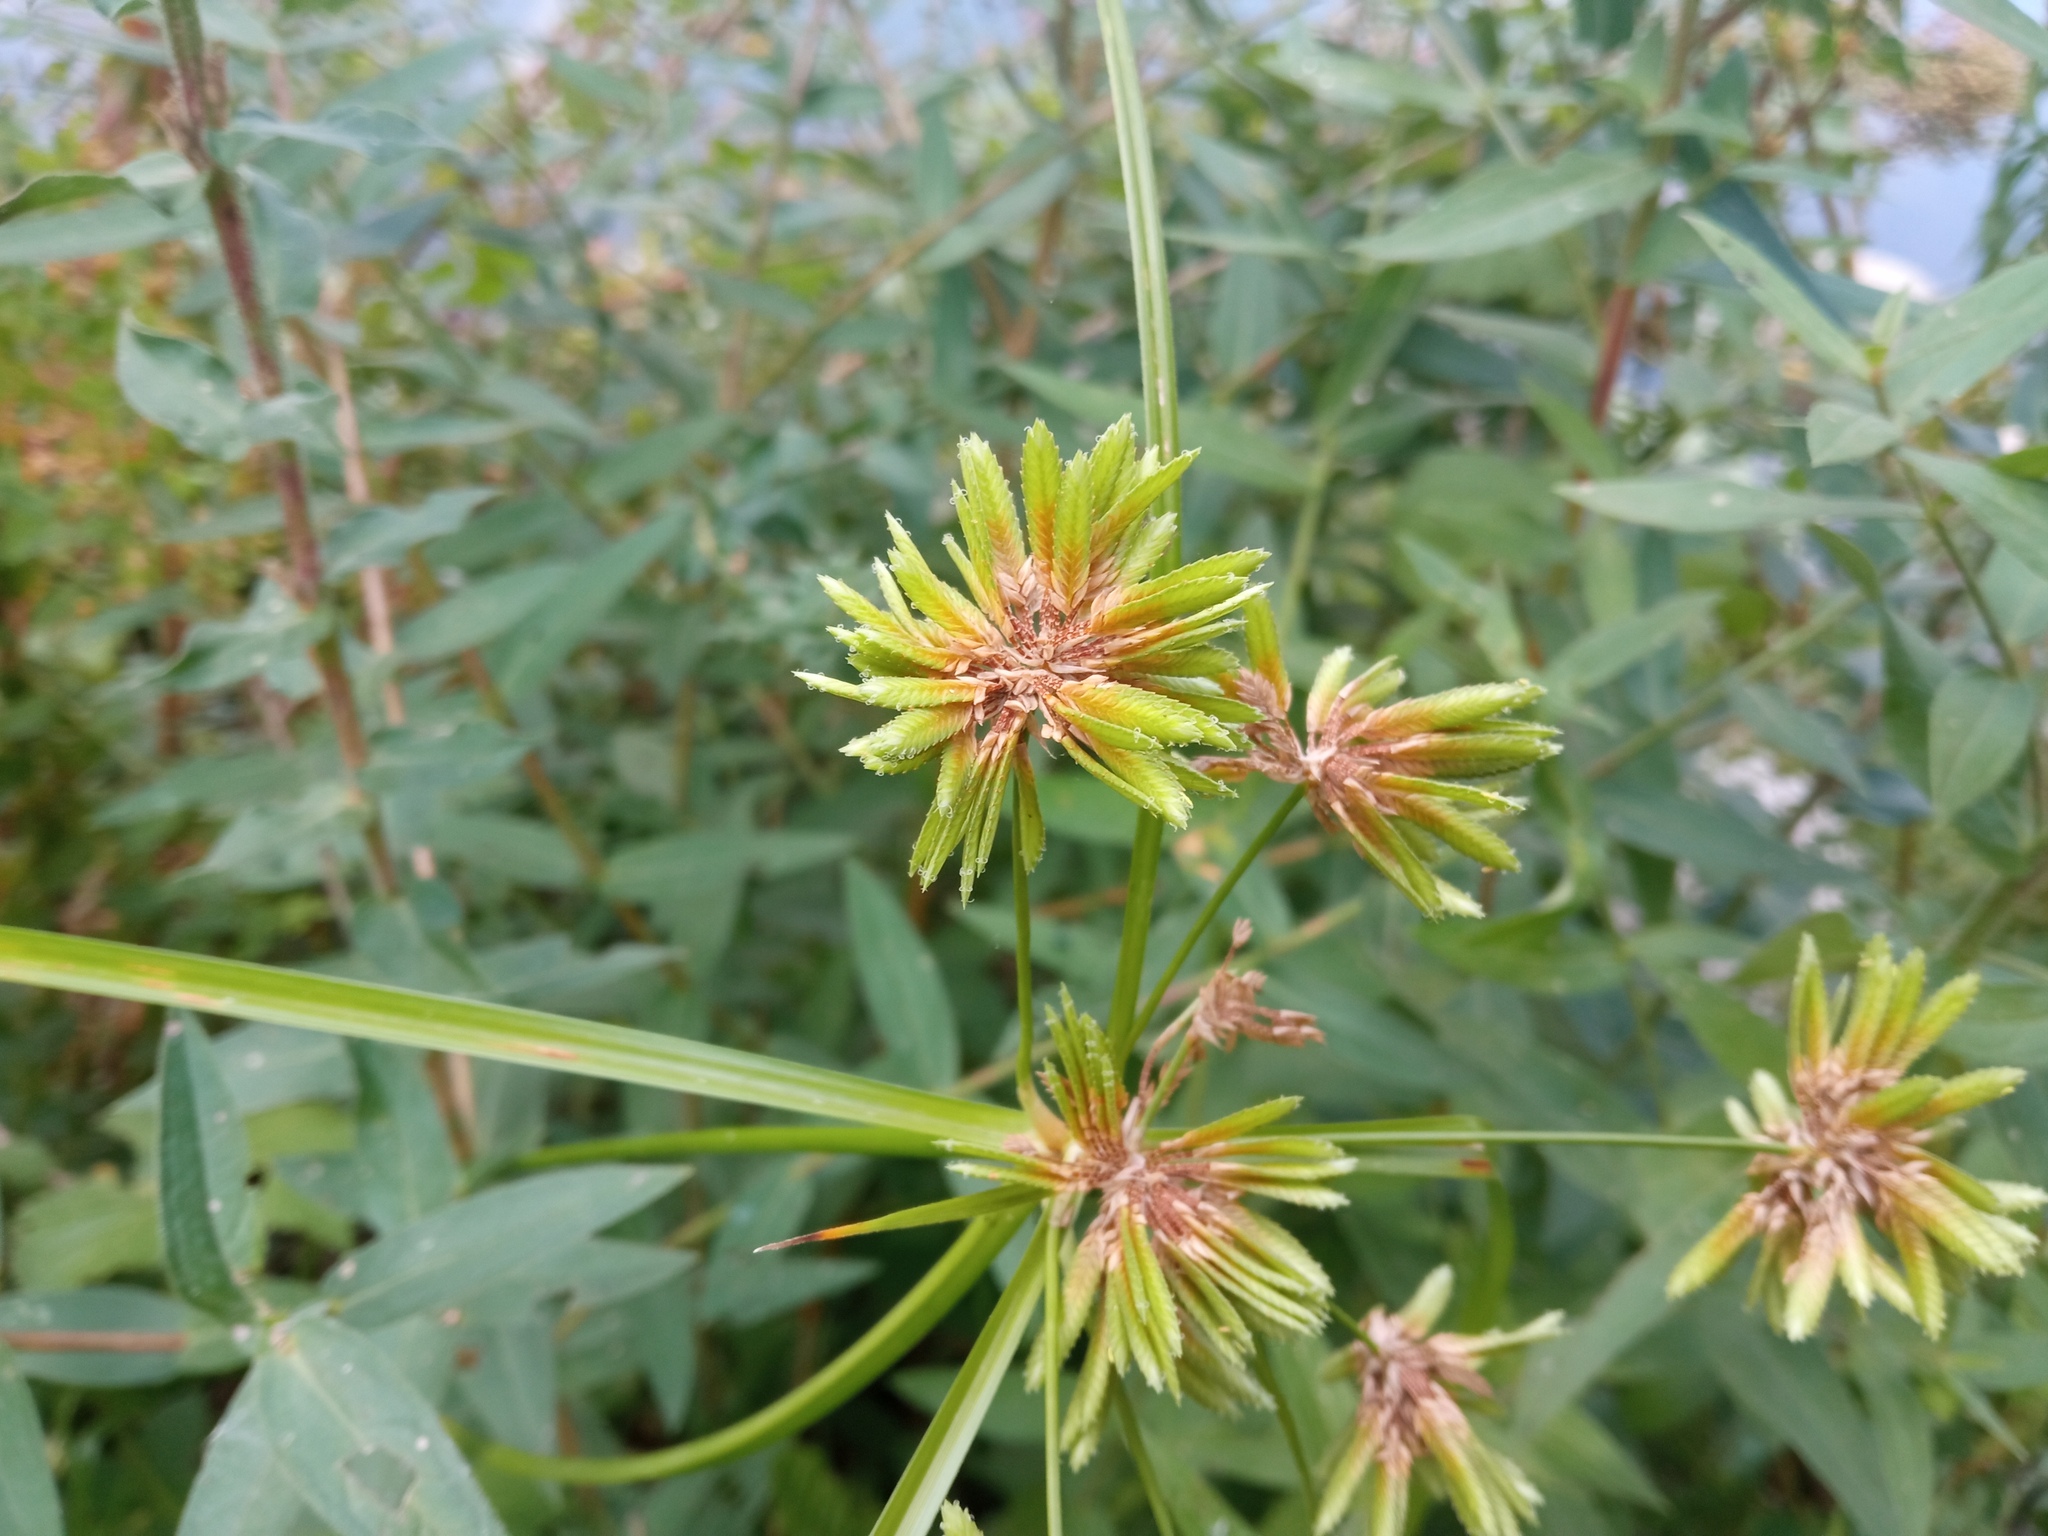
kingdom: Plantae
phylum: Tracheophyta
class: Liliopsida
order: Poales
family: Cyperaceae
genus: Cyperus
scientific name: Cyperus eragrostis
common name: Tall flatsedge
